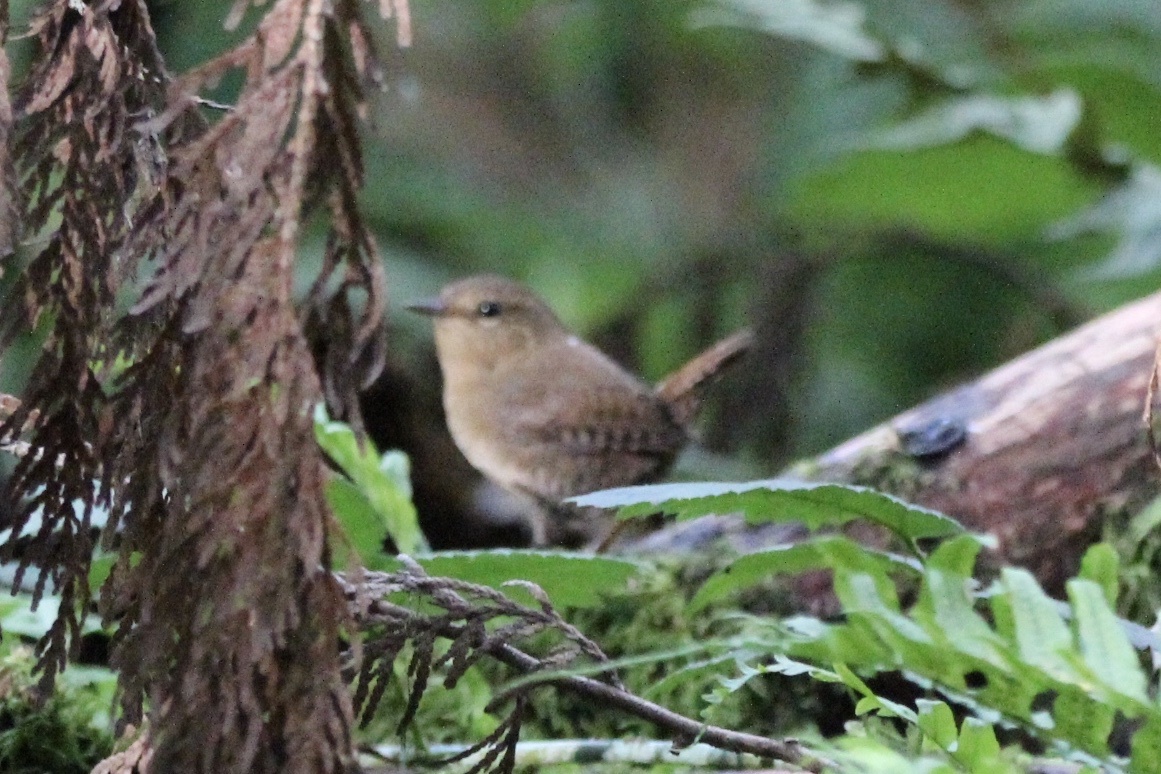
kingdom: Animalia
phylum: Chordata
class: Aves
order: Passeriformes
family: Troglodytidae
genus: Troglodytes
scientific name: Troglodytes pacificus
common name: Pacific wren
